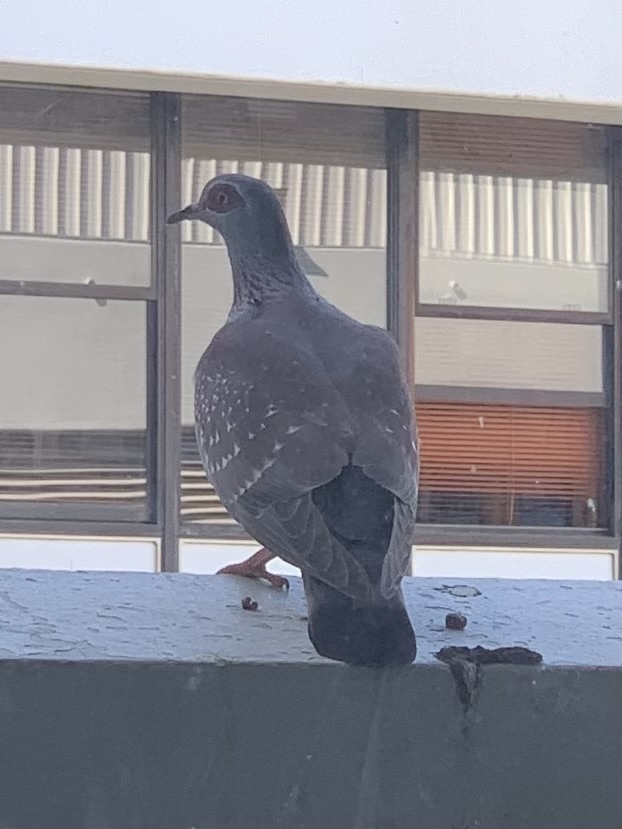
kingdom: Animalia
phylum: Chordata
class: Aves
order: Columbiformes
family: Columbidae
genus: Columba
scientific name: Columba guinea
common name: Speckled pigeon
